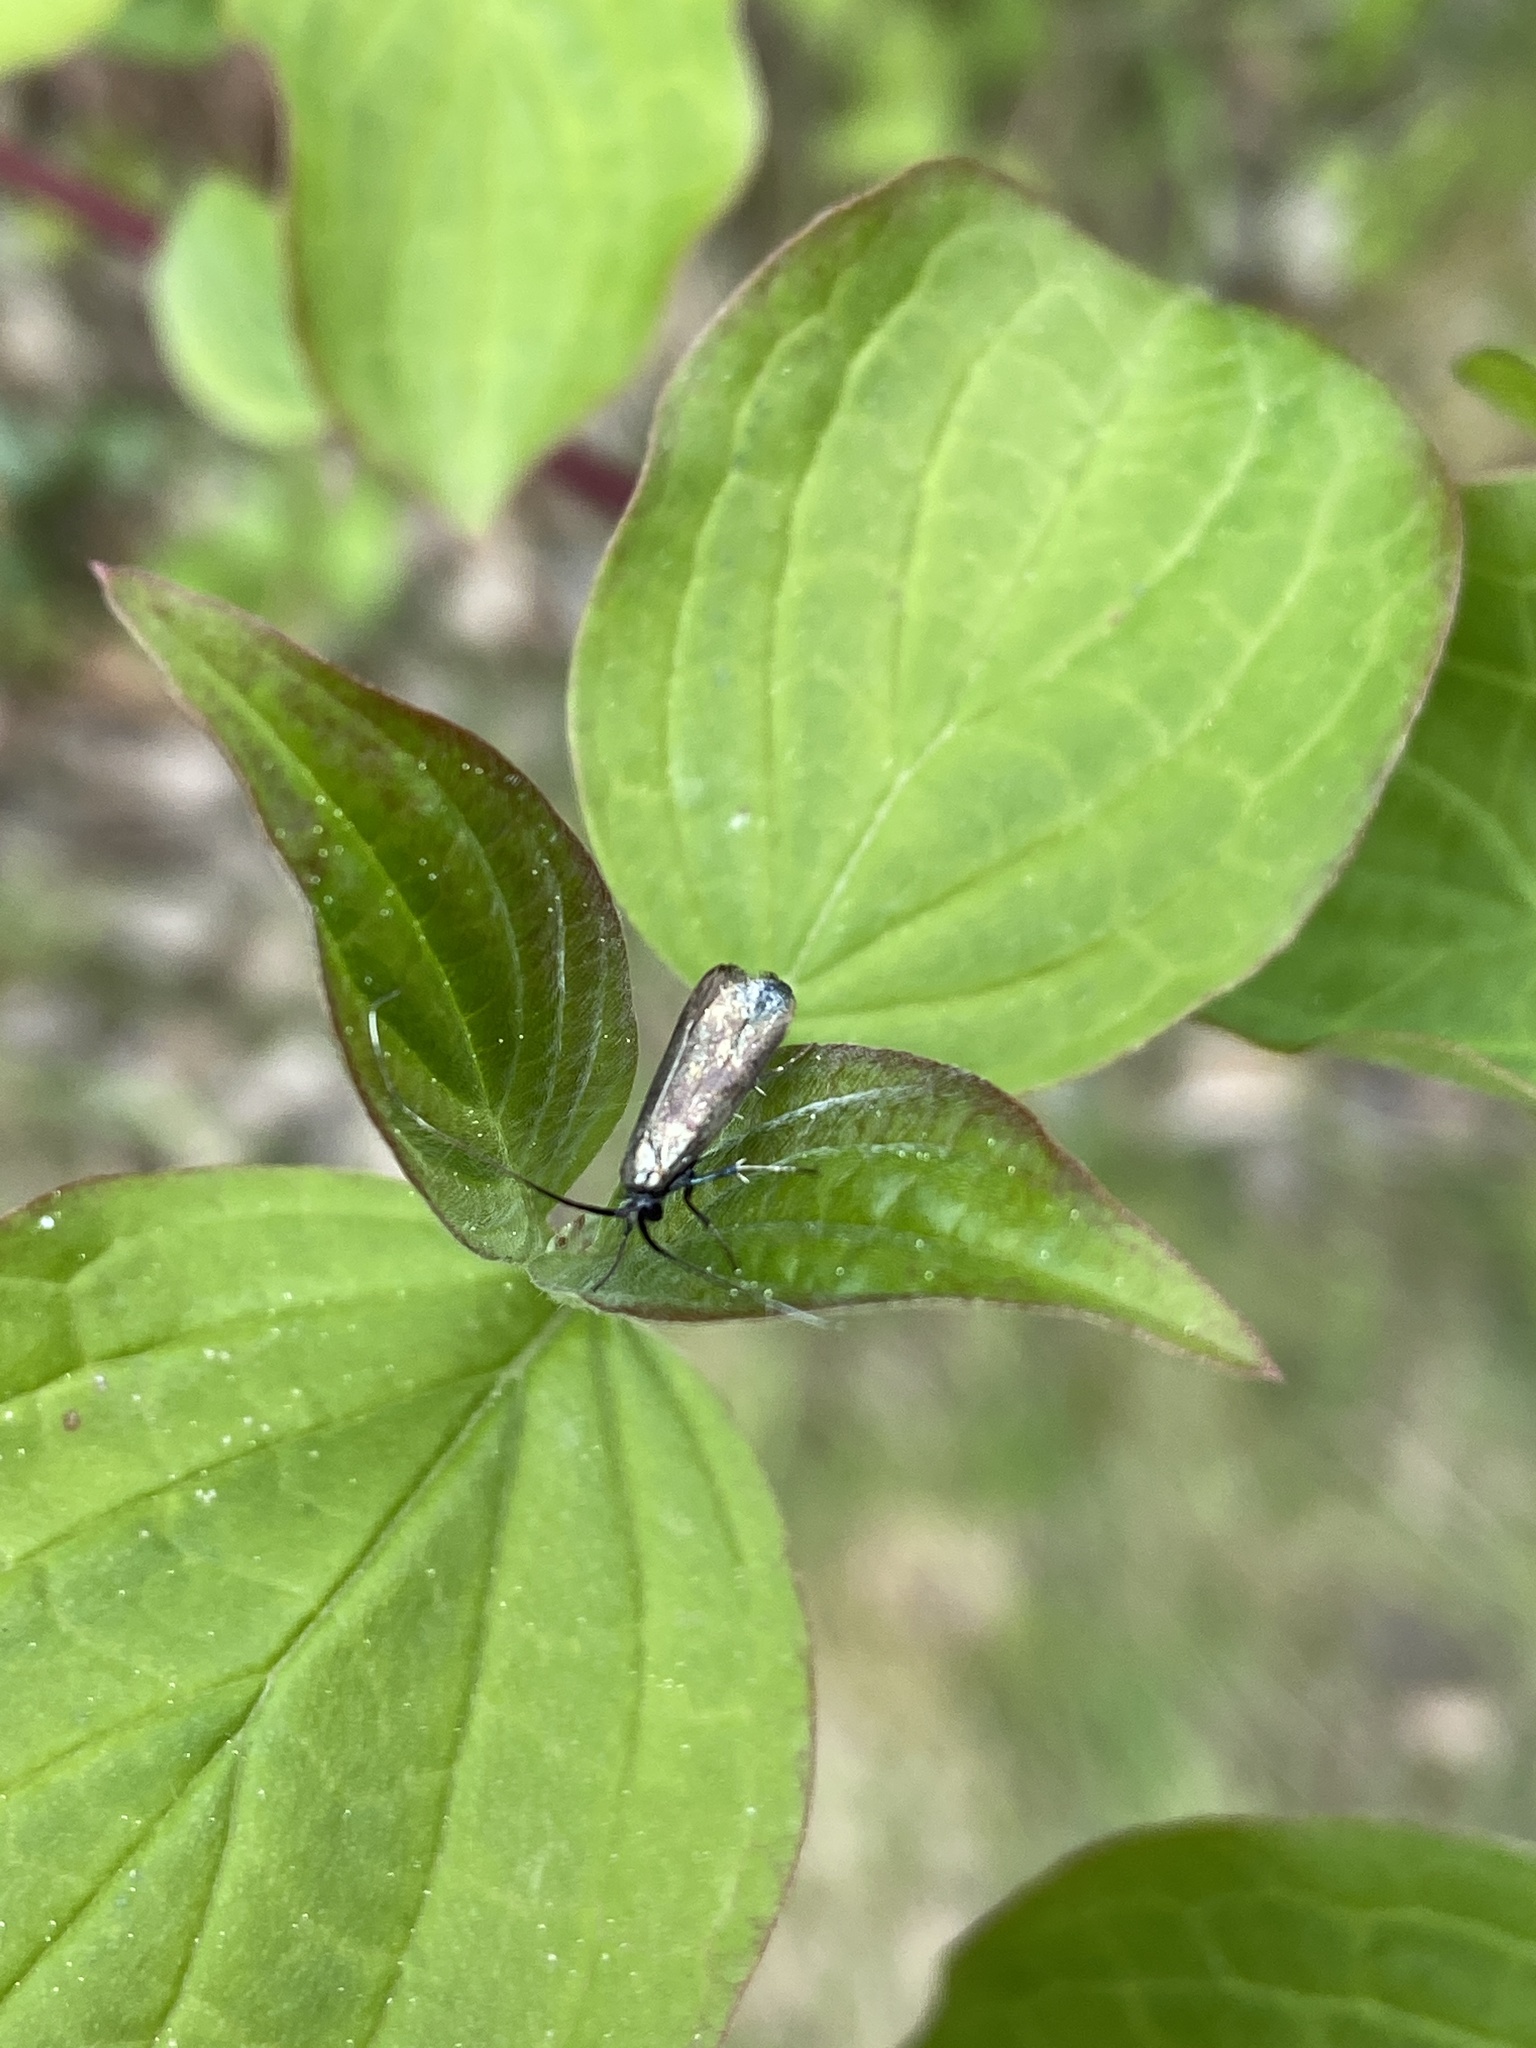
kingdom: Animalia
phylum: Arthropoda
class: Insecta
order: Lepidoptera
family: Adelidae
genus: Adela
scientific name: Adela viridella
